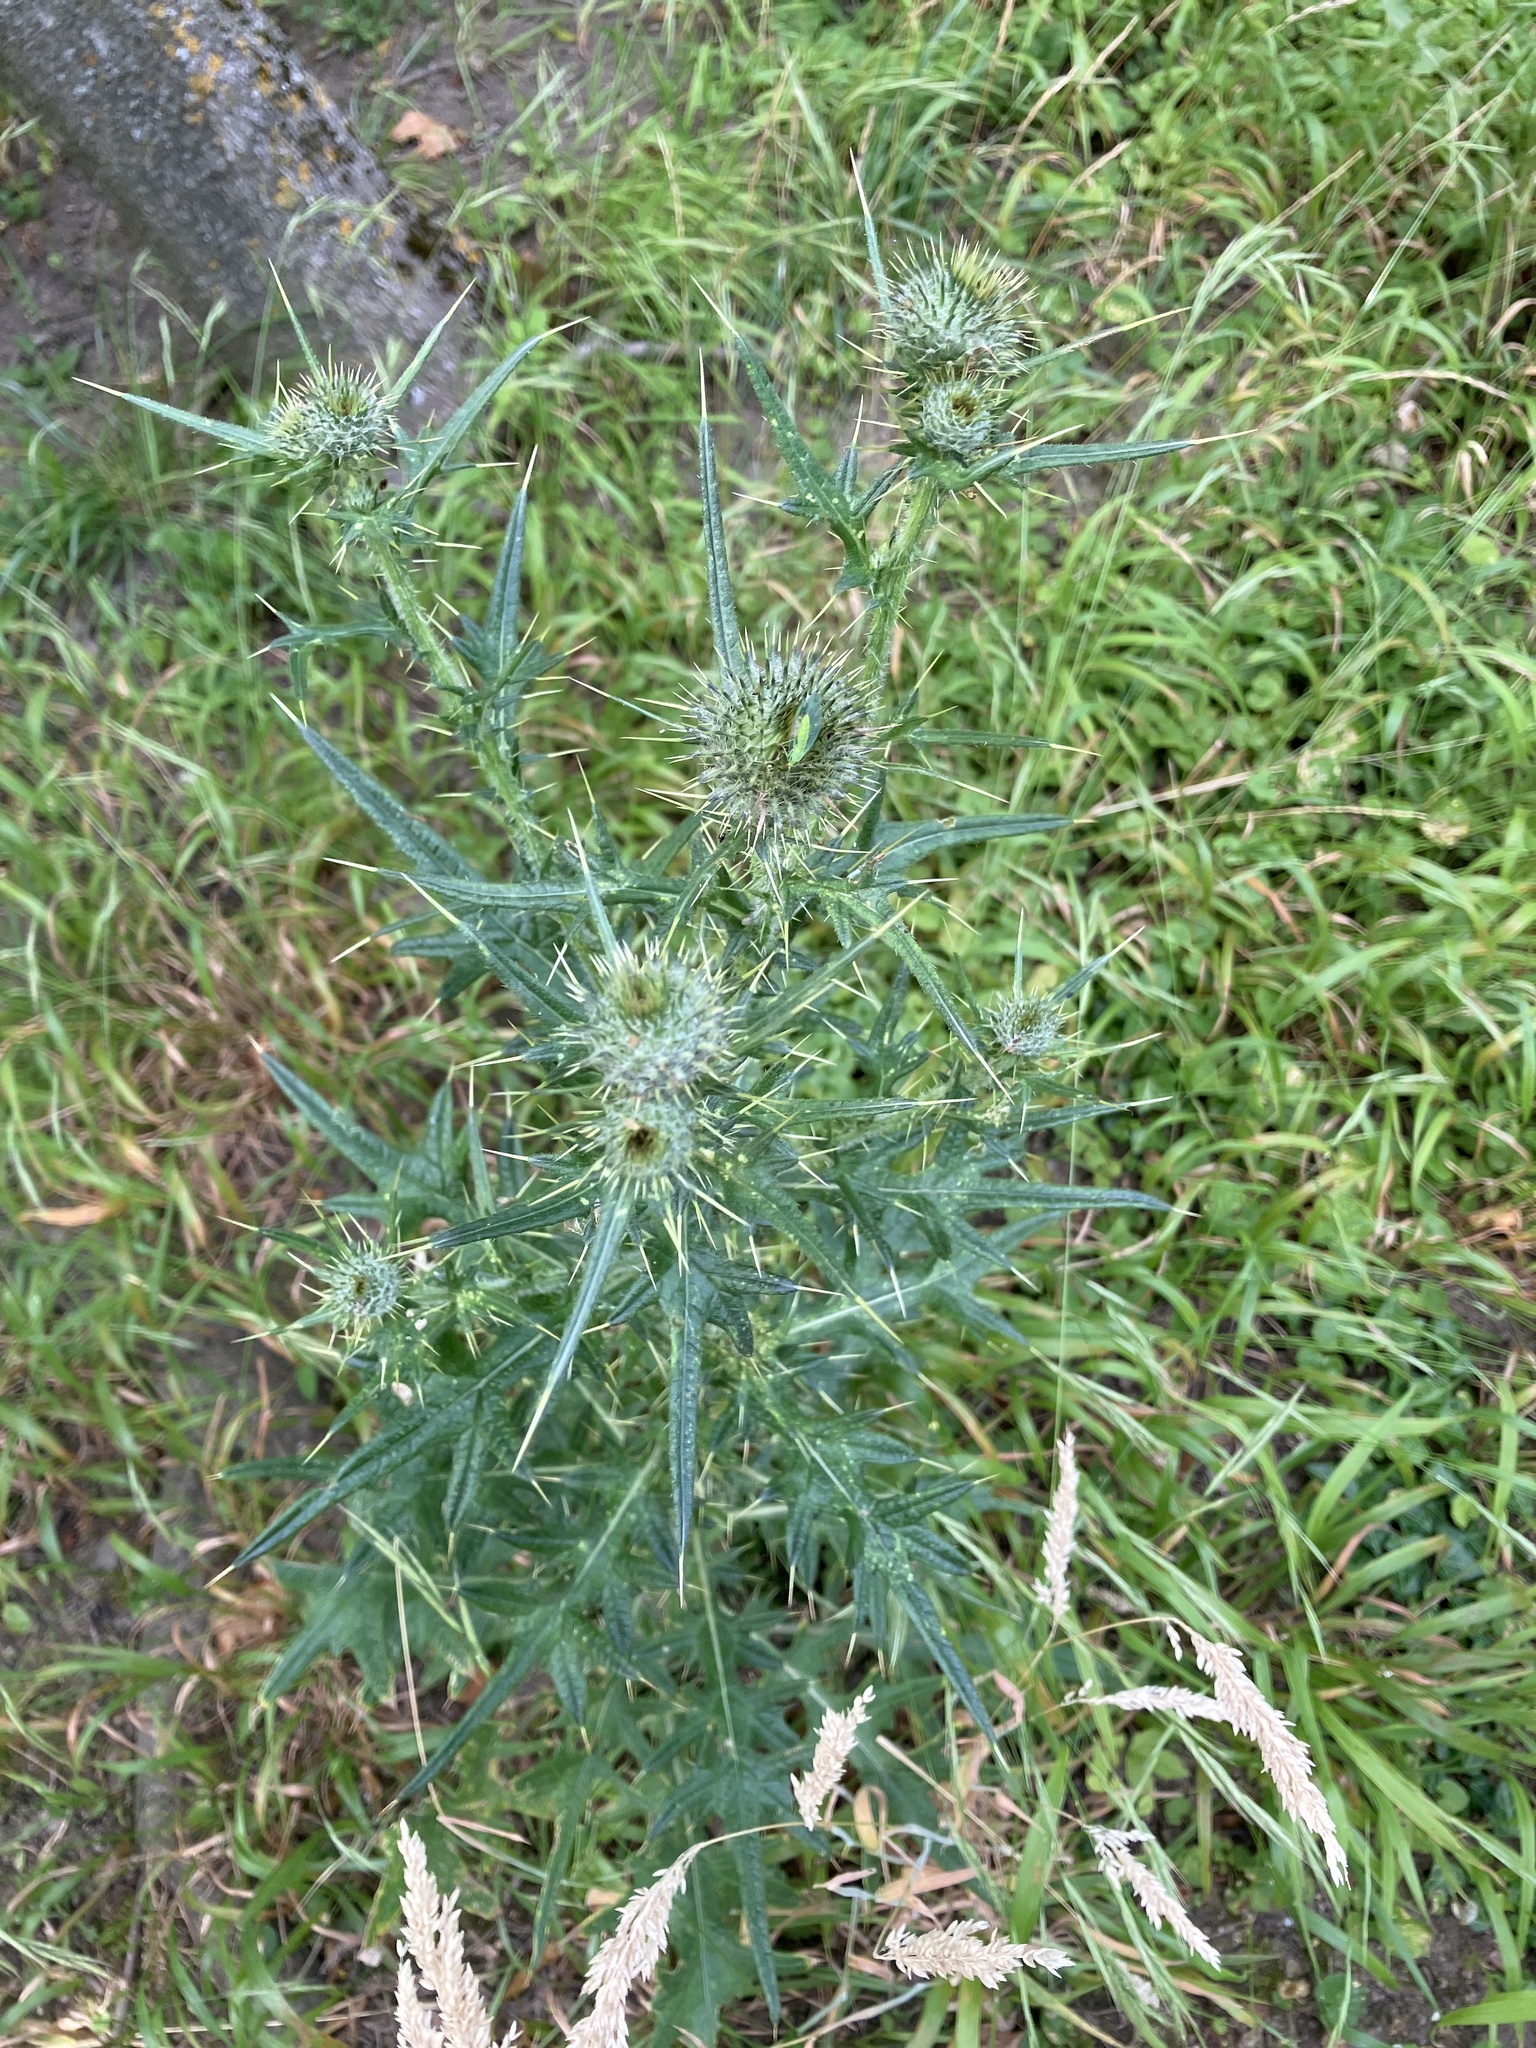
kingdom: Plantae
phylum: Tracheophyta
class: Magnoliopsida
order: Asterales
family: Asteraceae
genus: Cirsium
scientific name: Cirsium vulgare
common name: Bull thistle
